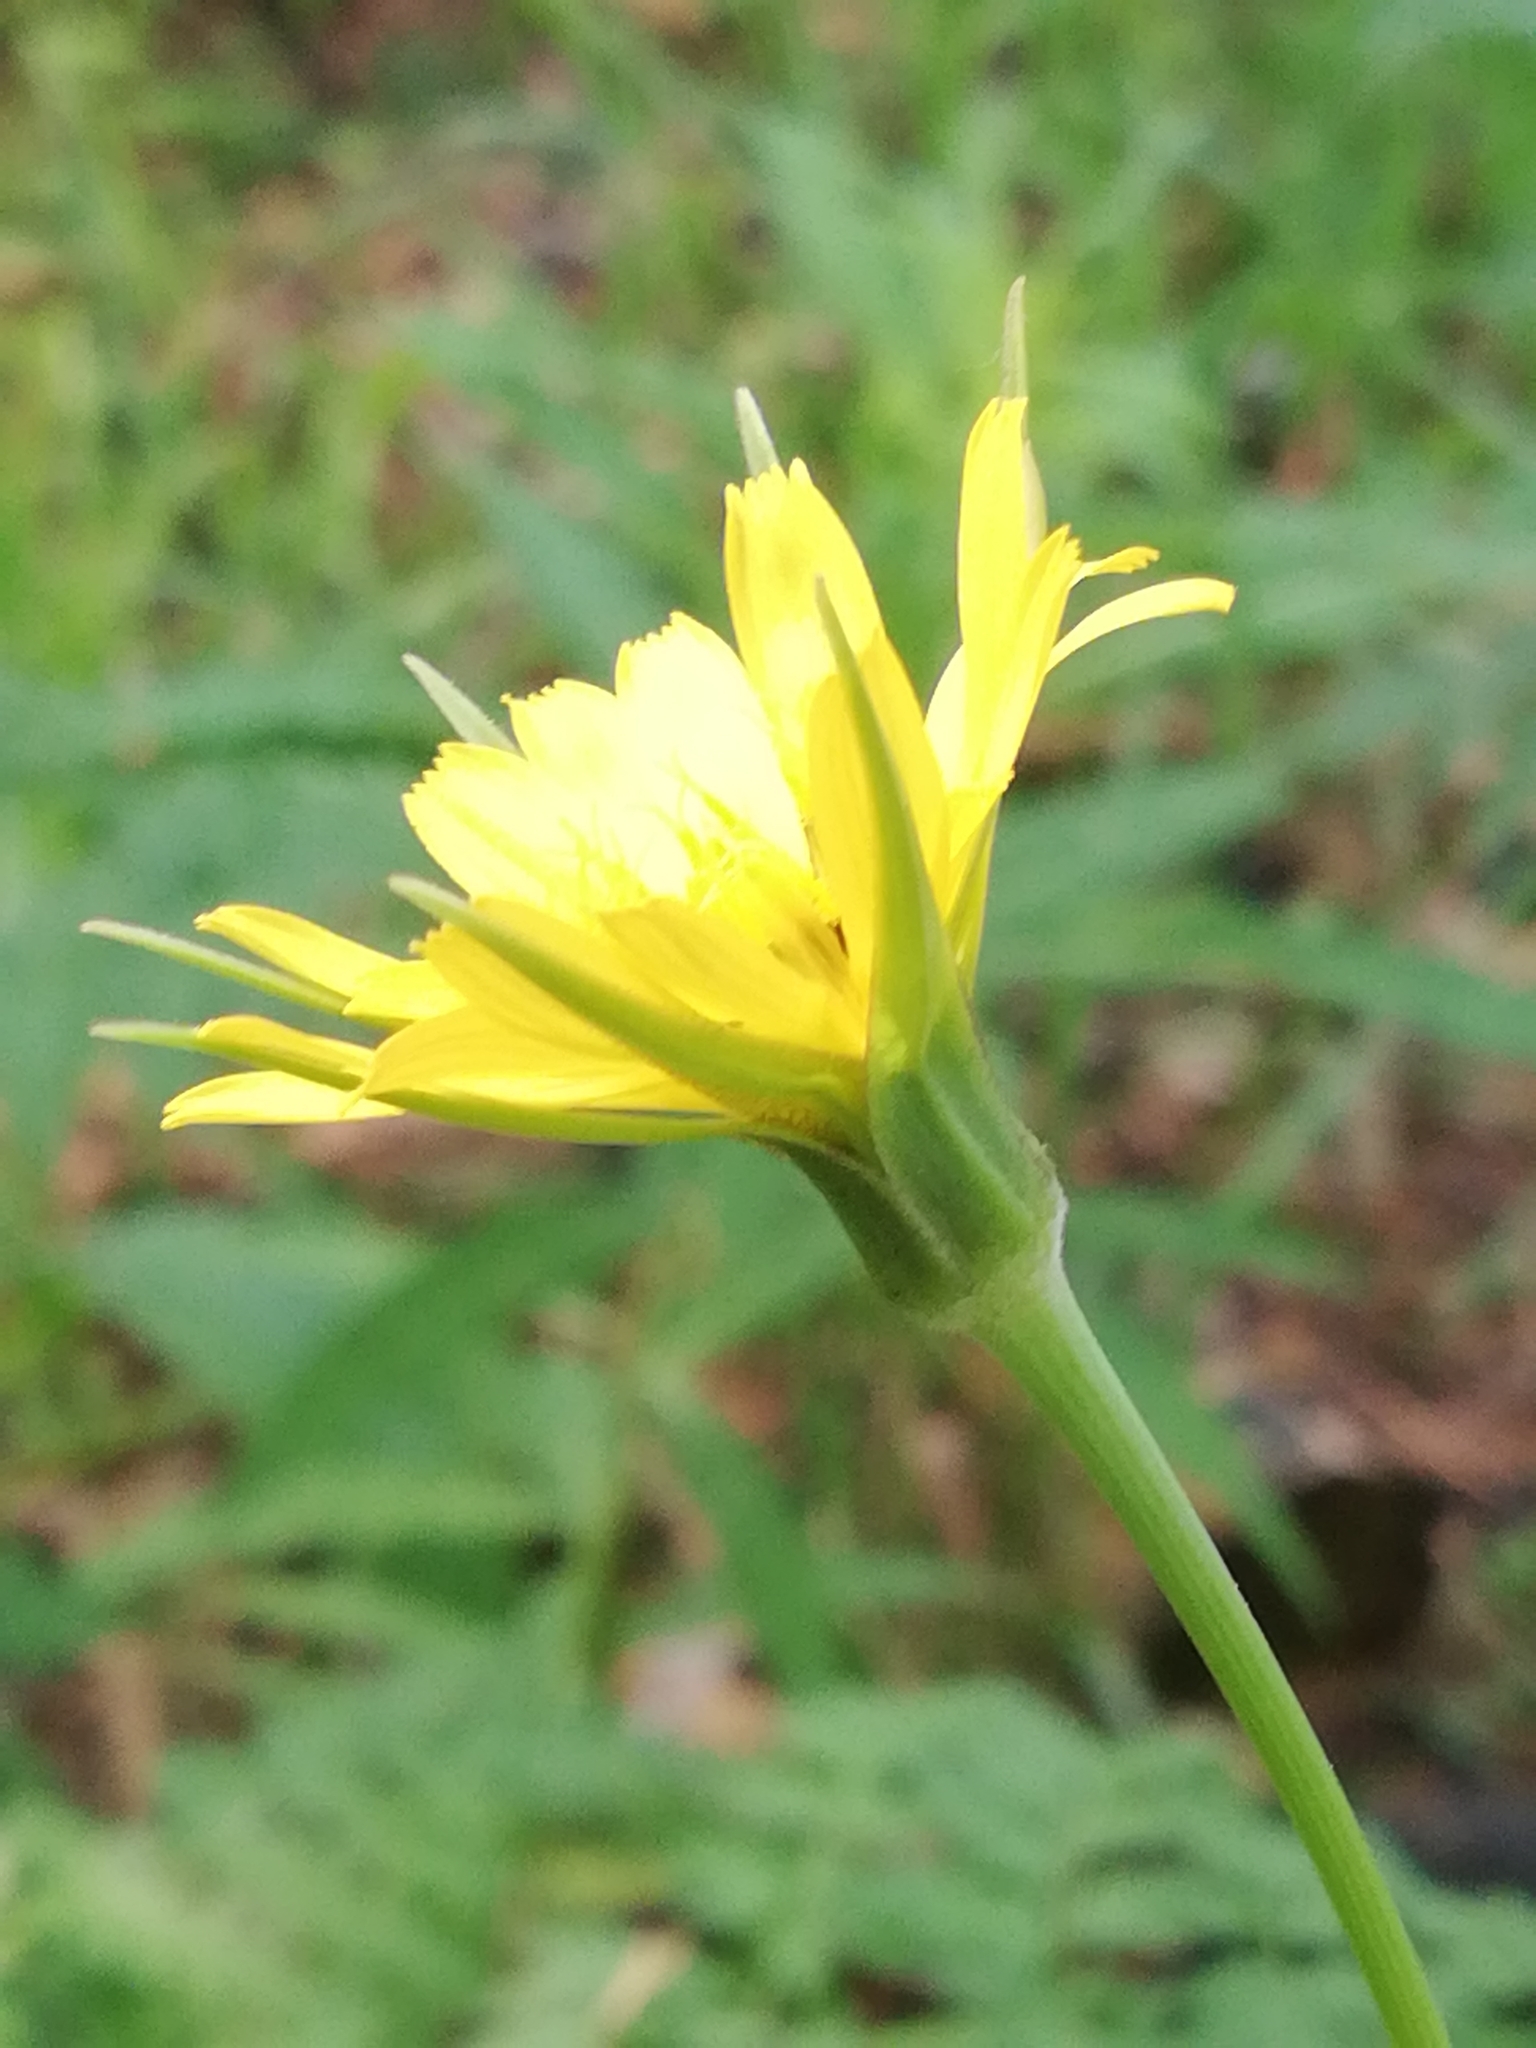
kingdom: Plantae
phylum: Tracheophyta
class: Magnoliopsida
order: Asterales
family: Asteraceae
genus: Tragopogon
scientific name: Tragopogon pratensis
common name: Goat's-beard
